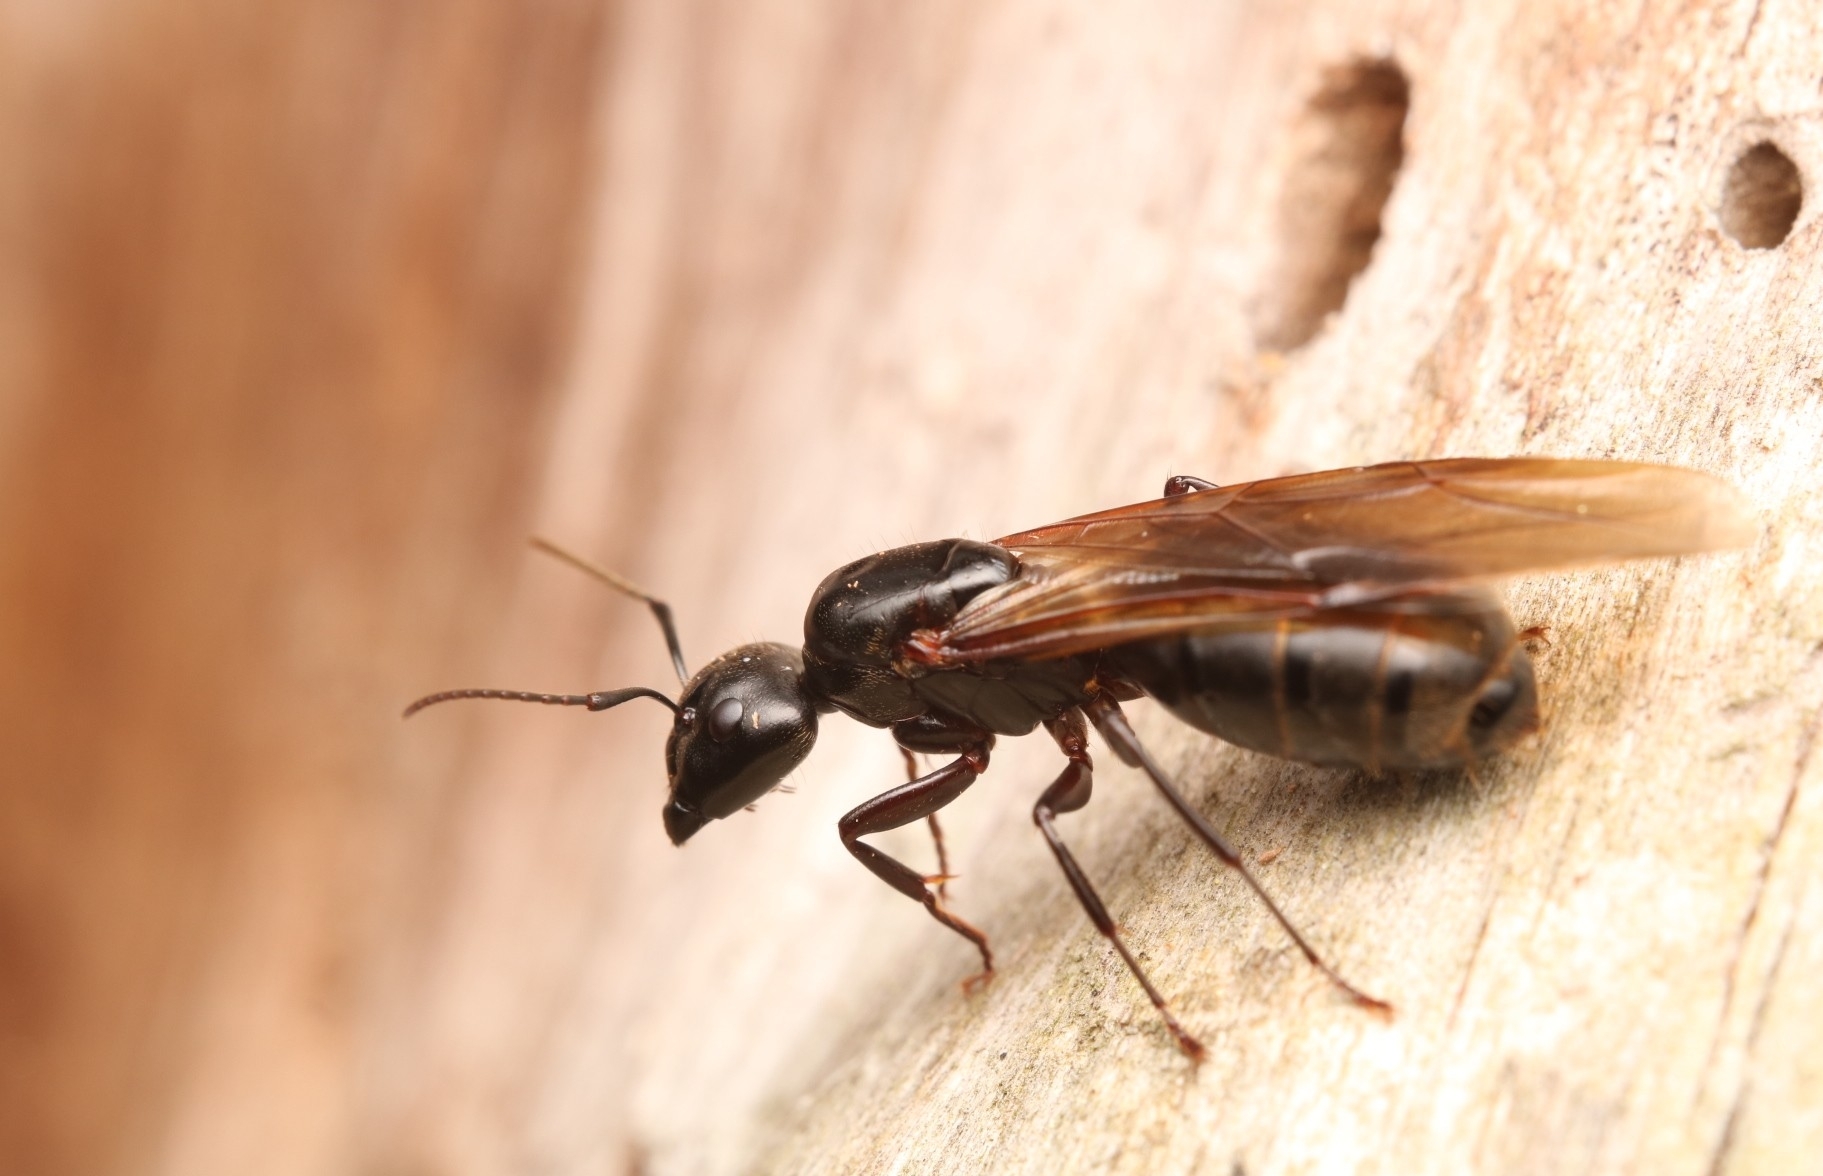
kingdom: Animalia
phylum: Arthropoda
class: Insecta
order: Hymenoptera
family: Formicidae
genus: Camponotus
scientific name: Camponotus pennsylvanicus
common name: Black carpenter ant
